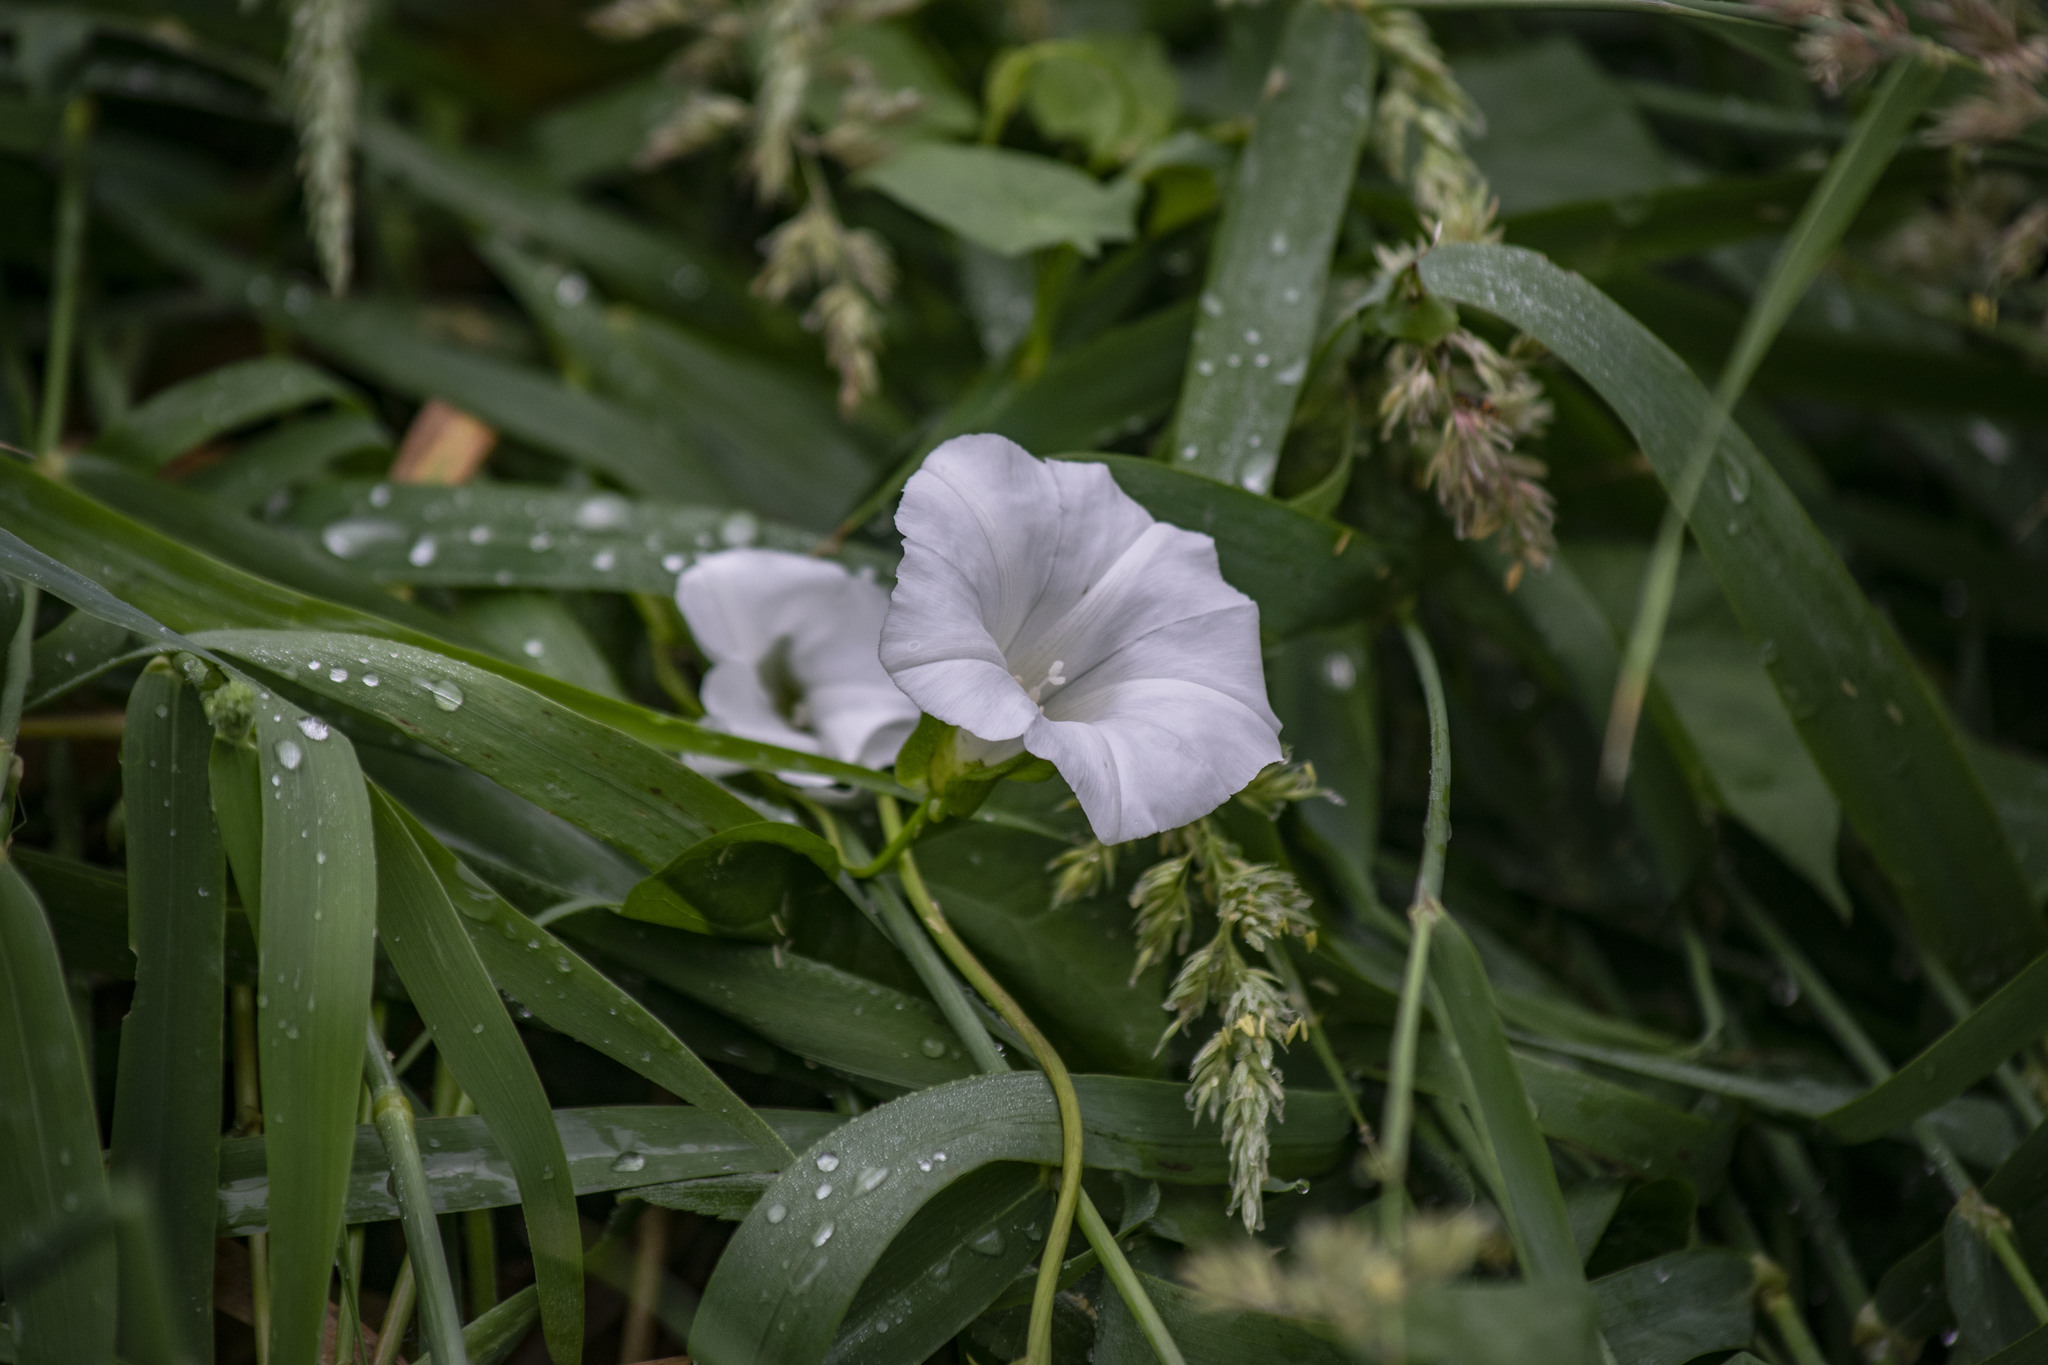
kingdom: Plantae
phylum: Tracheophyta
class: Magnoliopsida
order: Solanales
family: Convolvulaceae
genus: Calystegia
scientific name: Calystegia sepium
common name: Hedge bindweed
